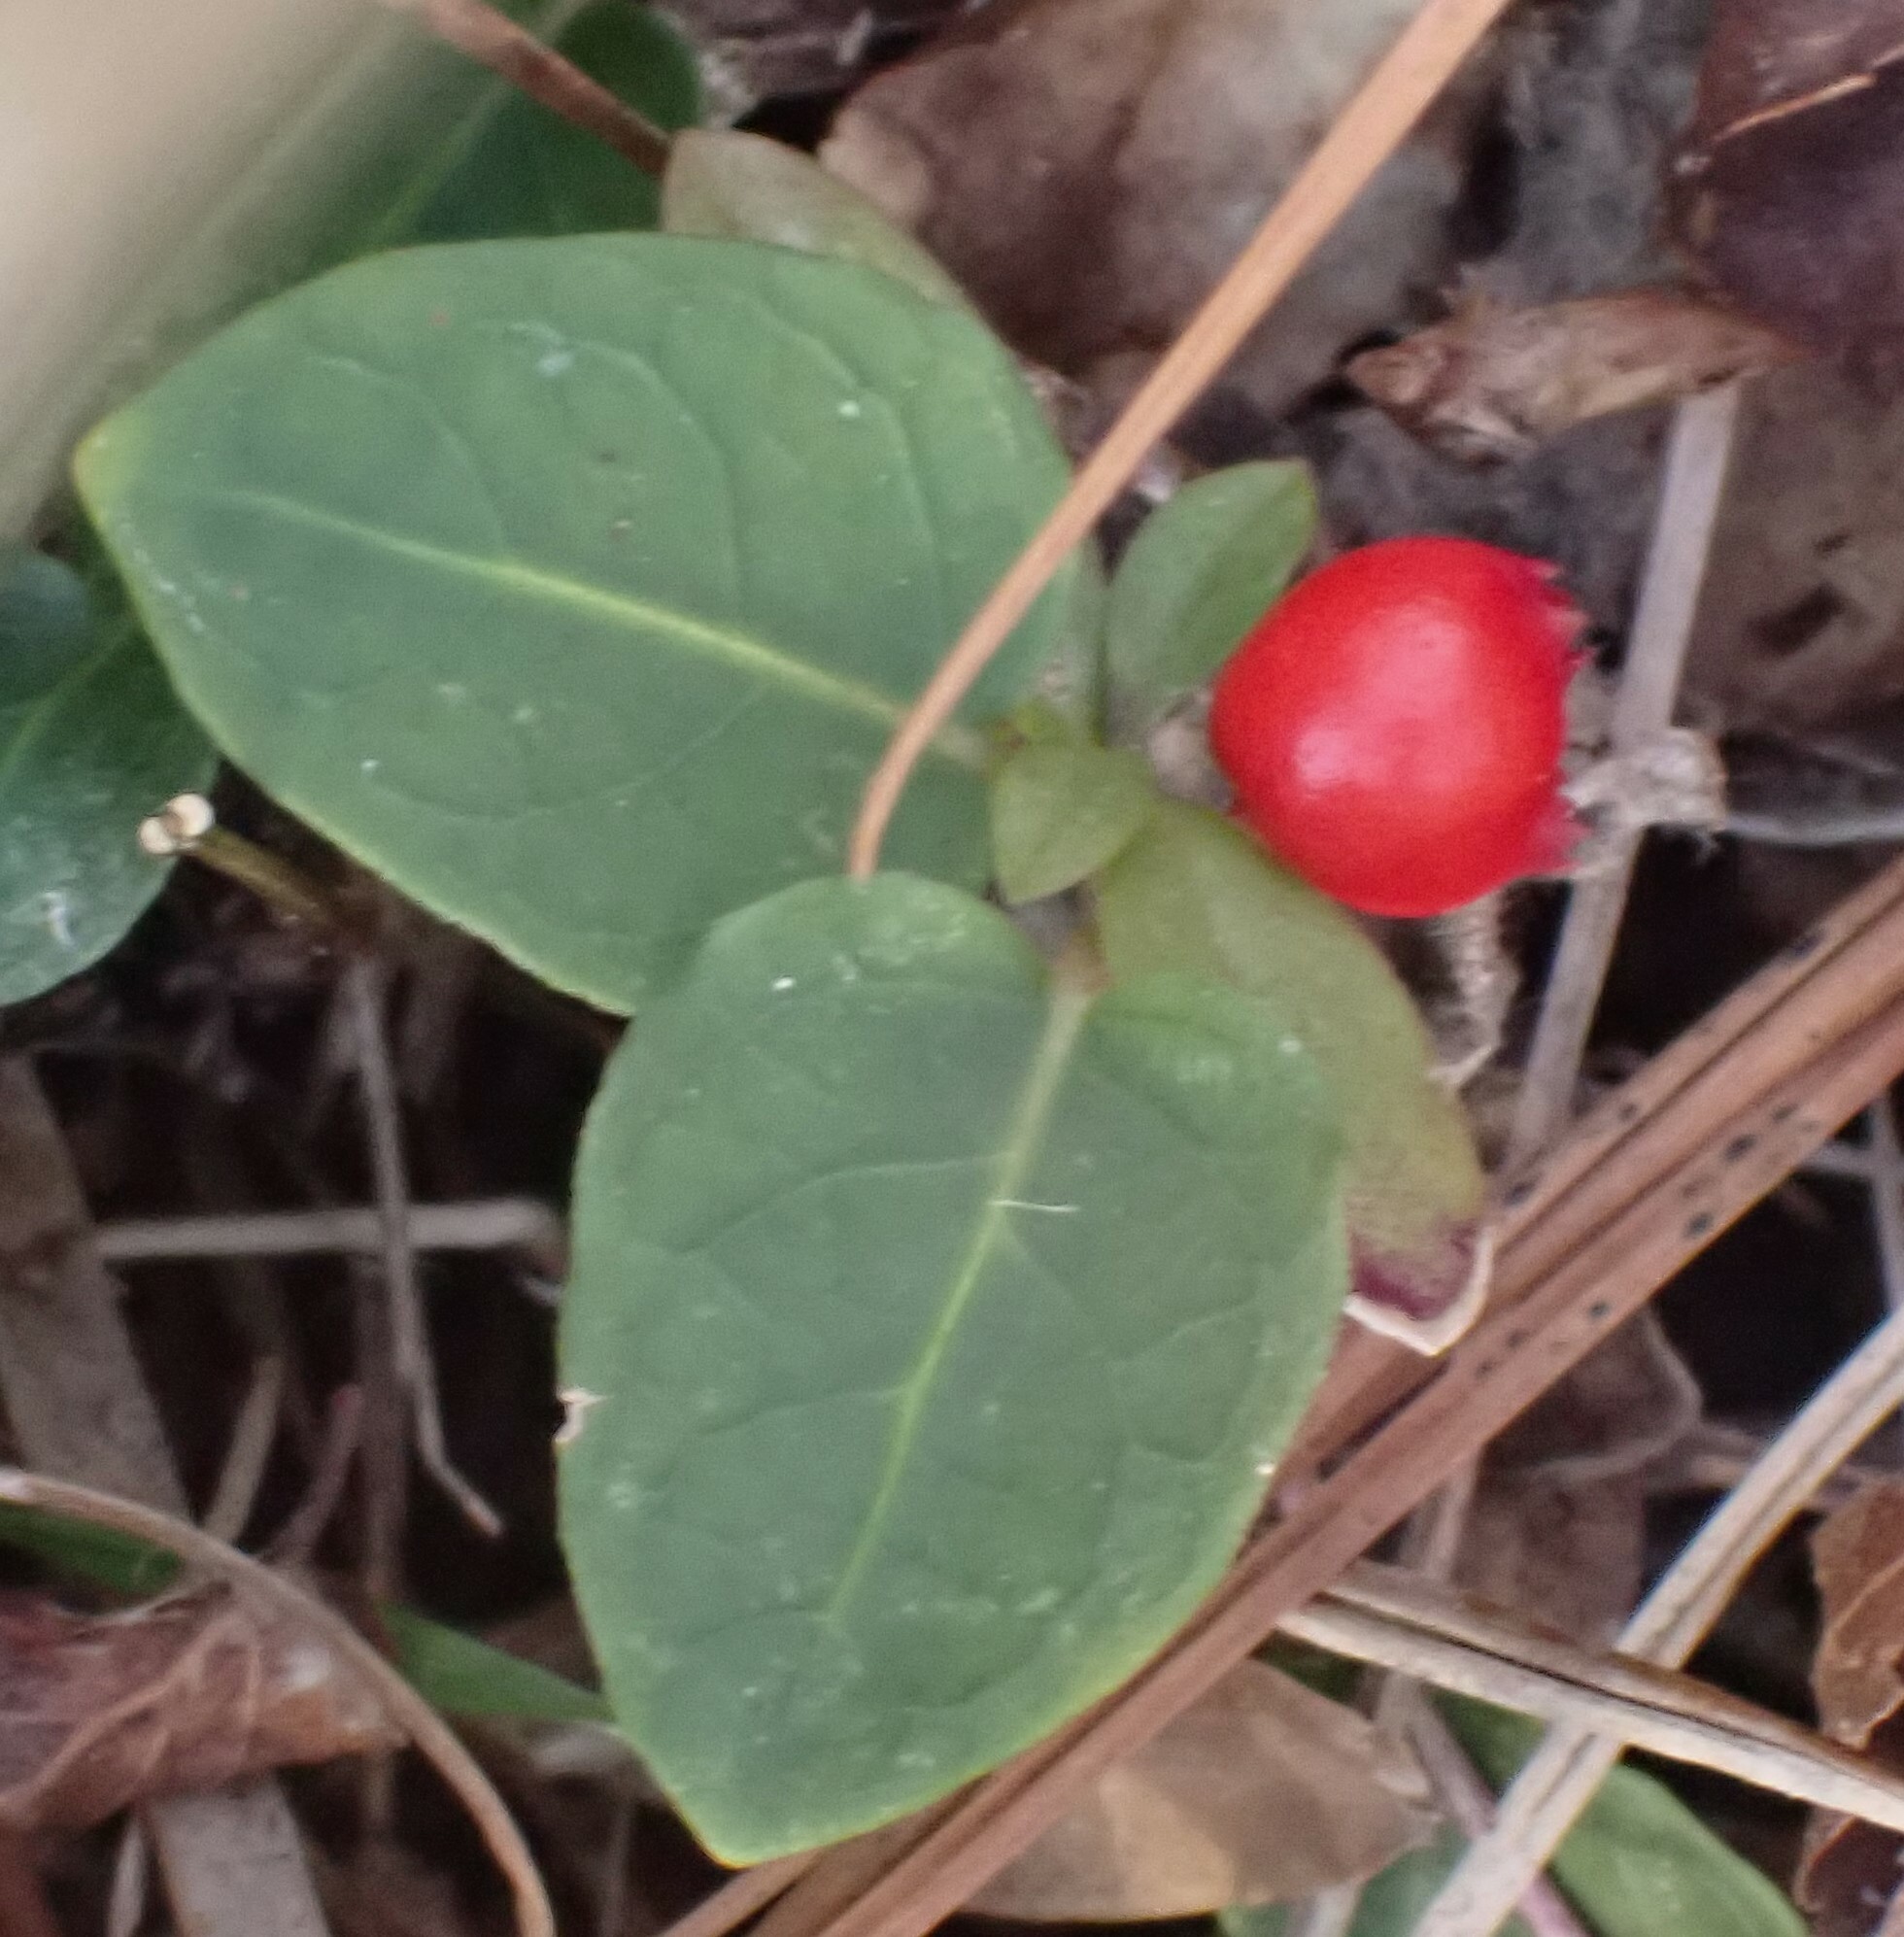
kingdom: Plantae
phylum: Tracheophyta
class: Magnoliopsida
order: Gentianales
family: Rubiaceae
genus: Mitchella
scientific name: Mitchella repens
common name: Partridge-berry
